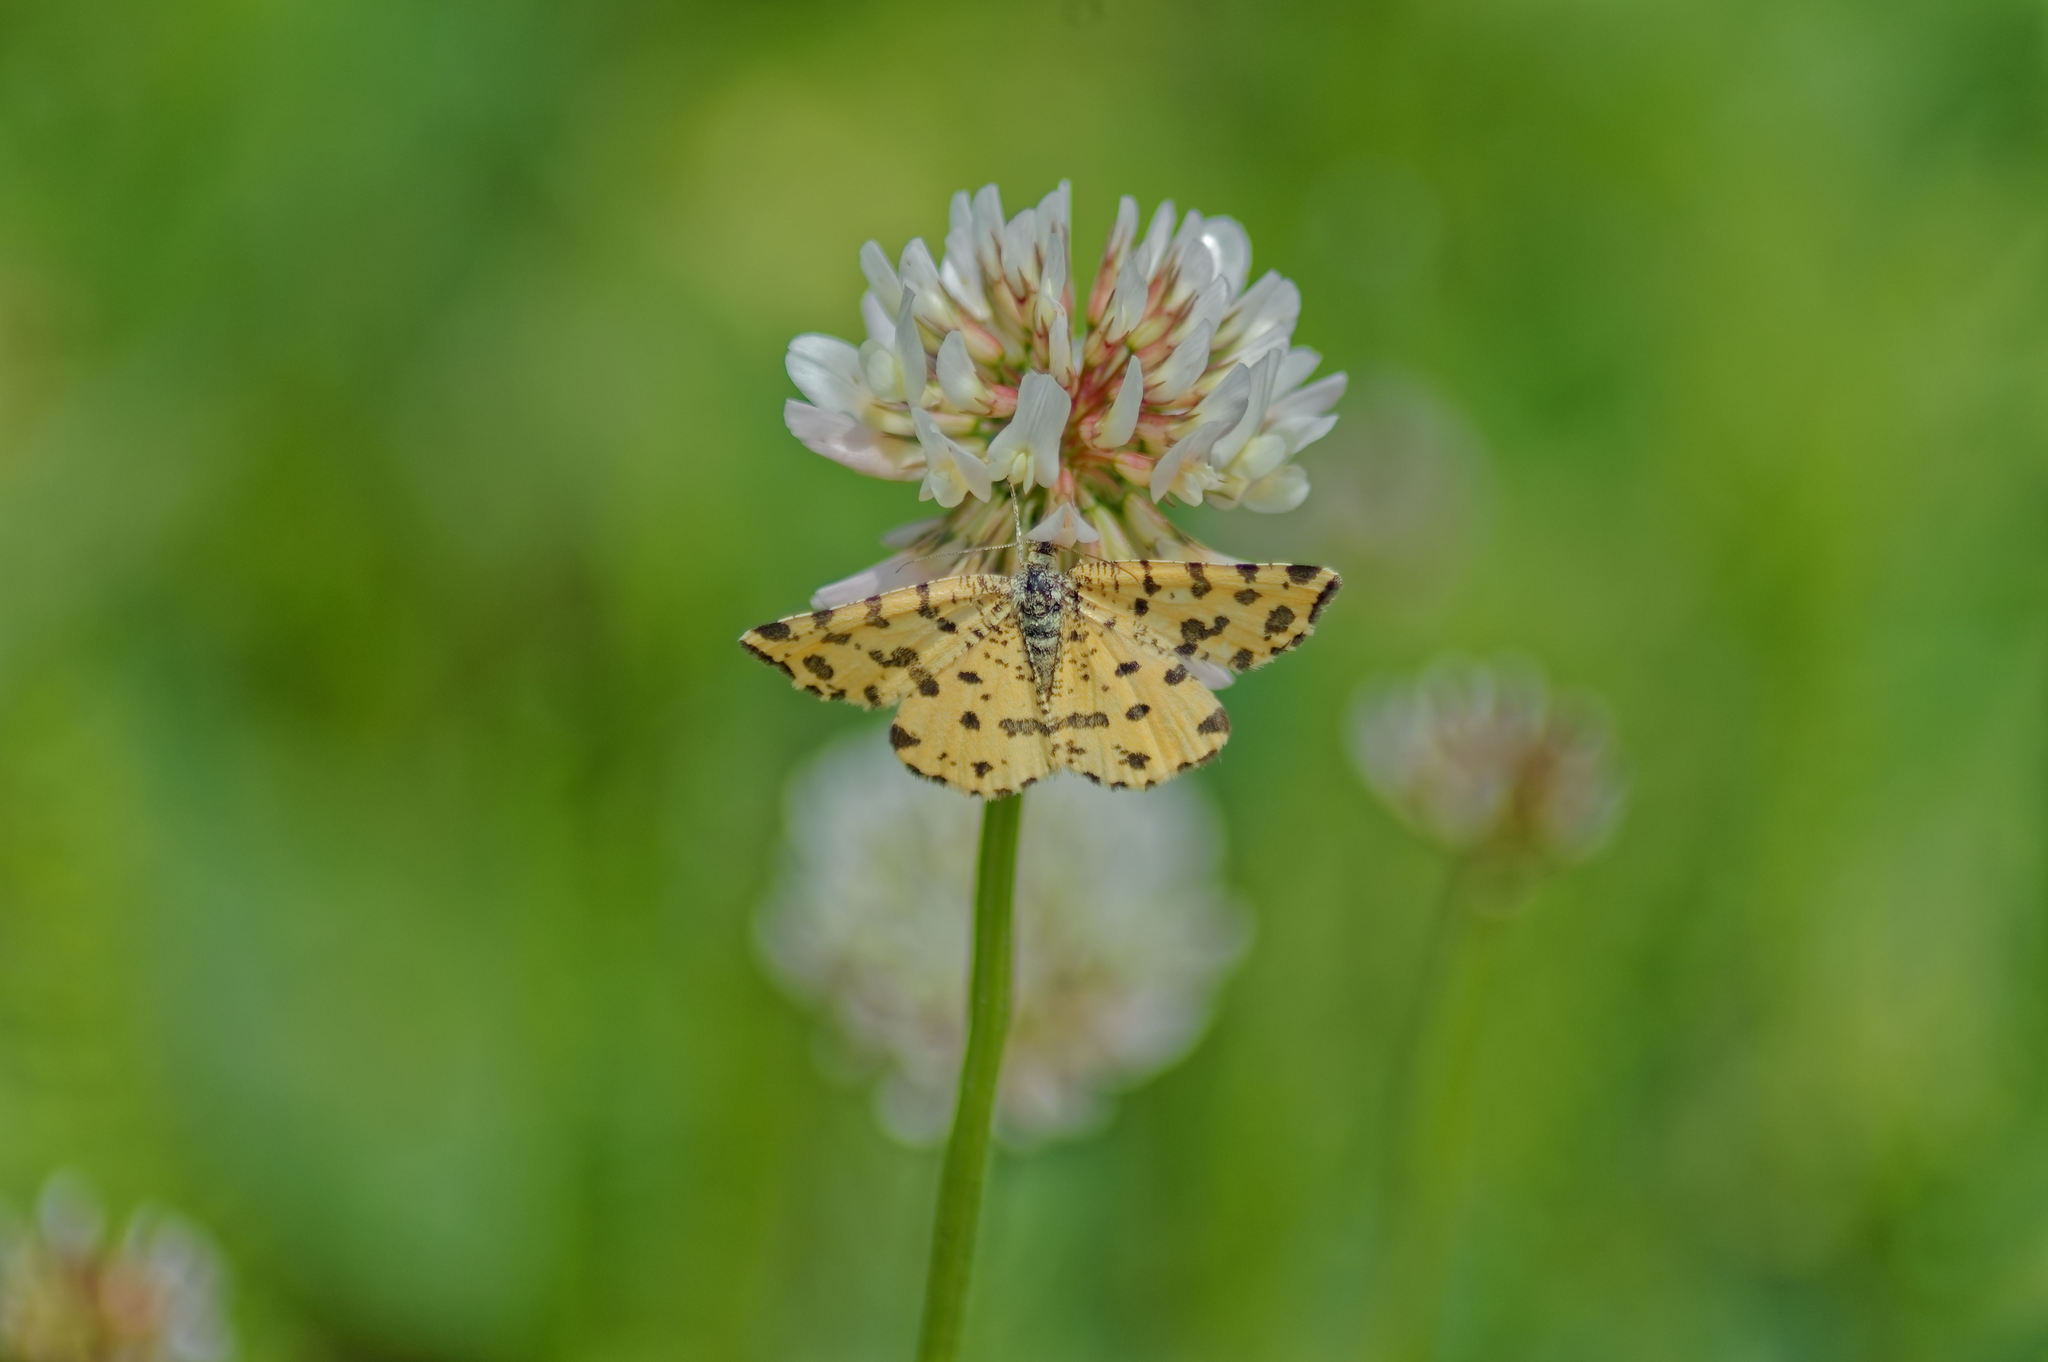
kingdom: Animalia
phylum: Arthropoda
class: Insecta
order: Lepidoptera
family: Geometridae
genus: Pseudopanthera
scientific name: Pseudopanthera macularia
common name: Speckled yellow
